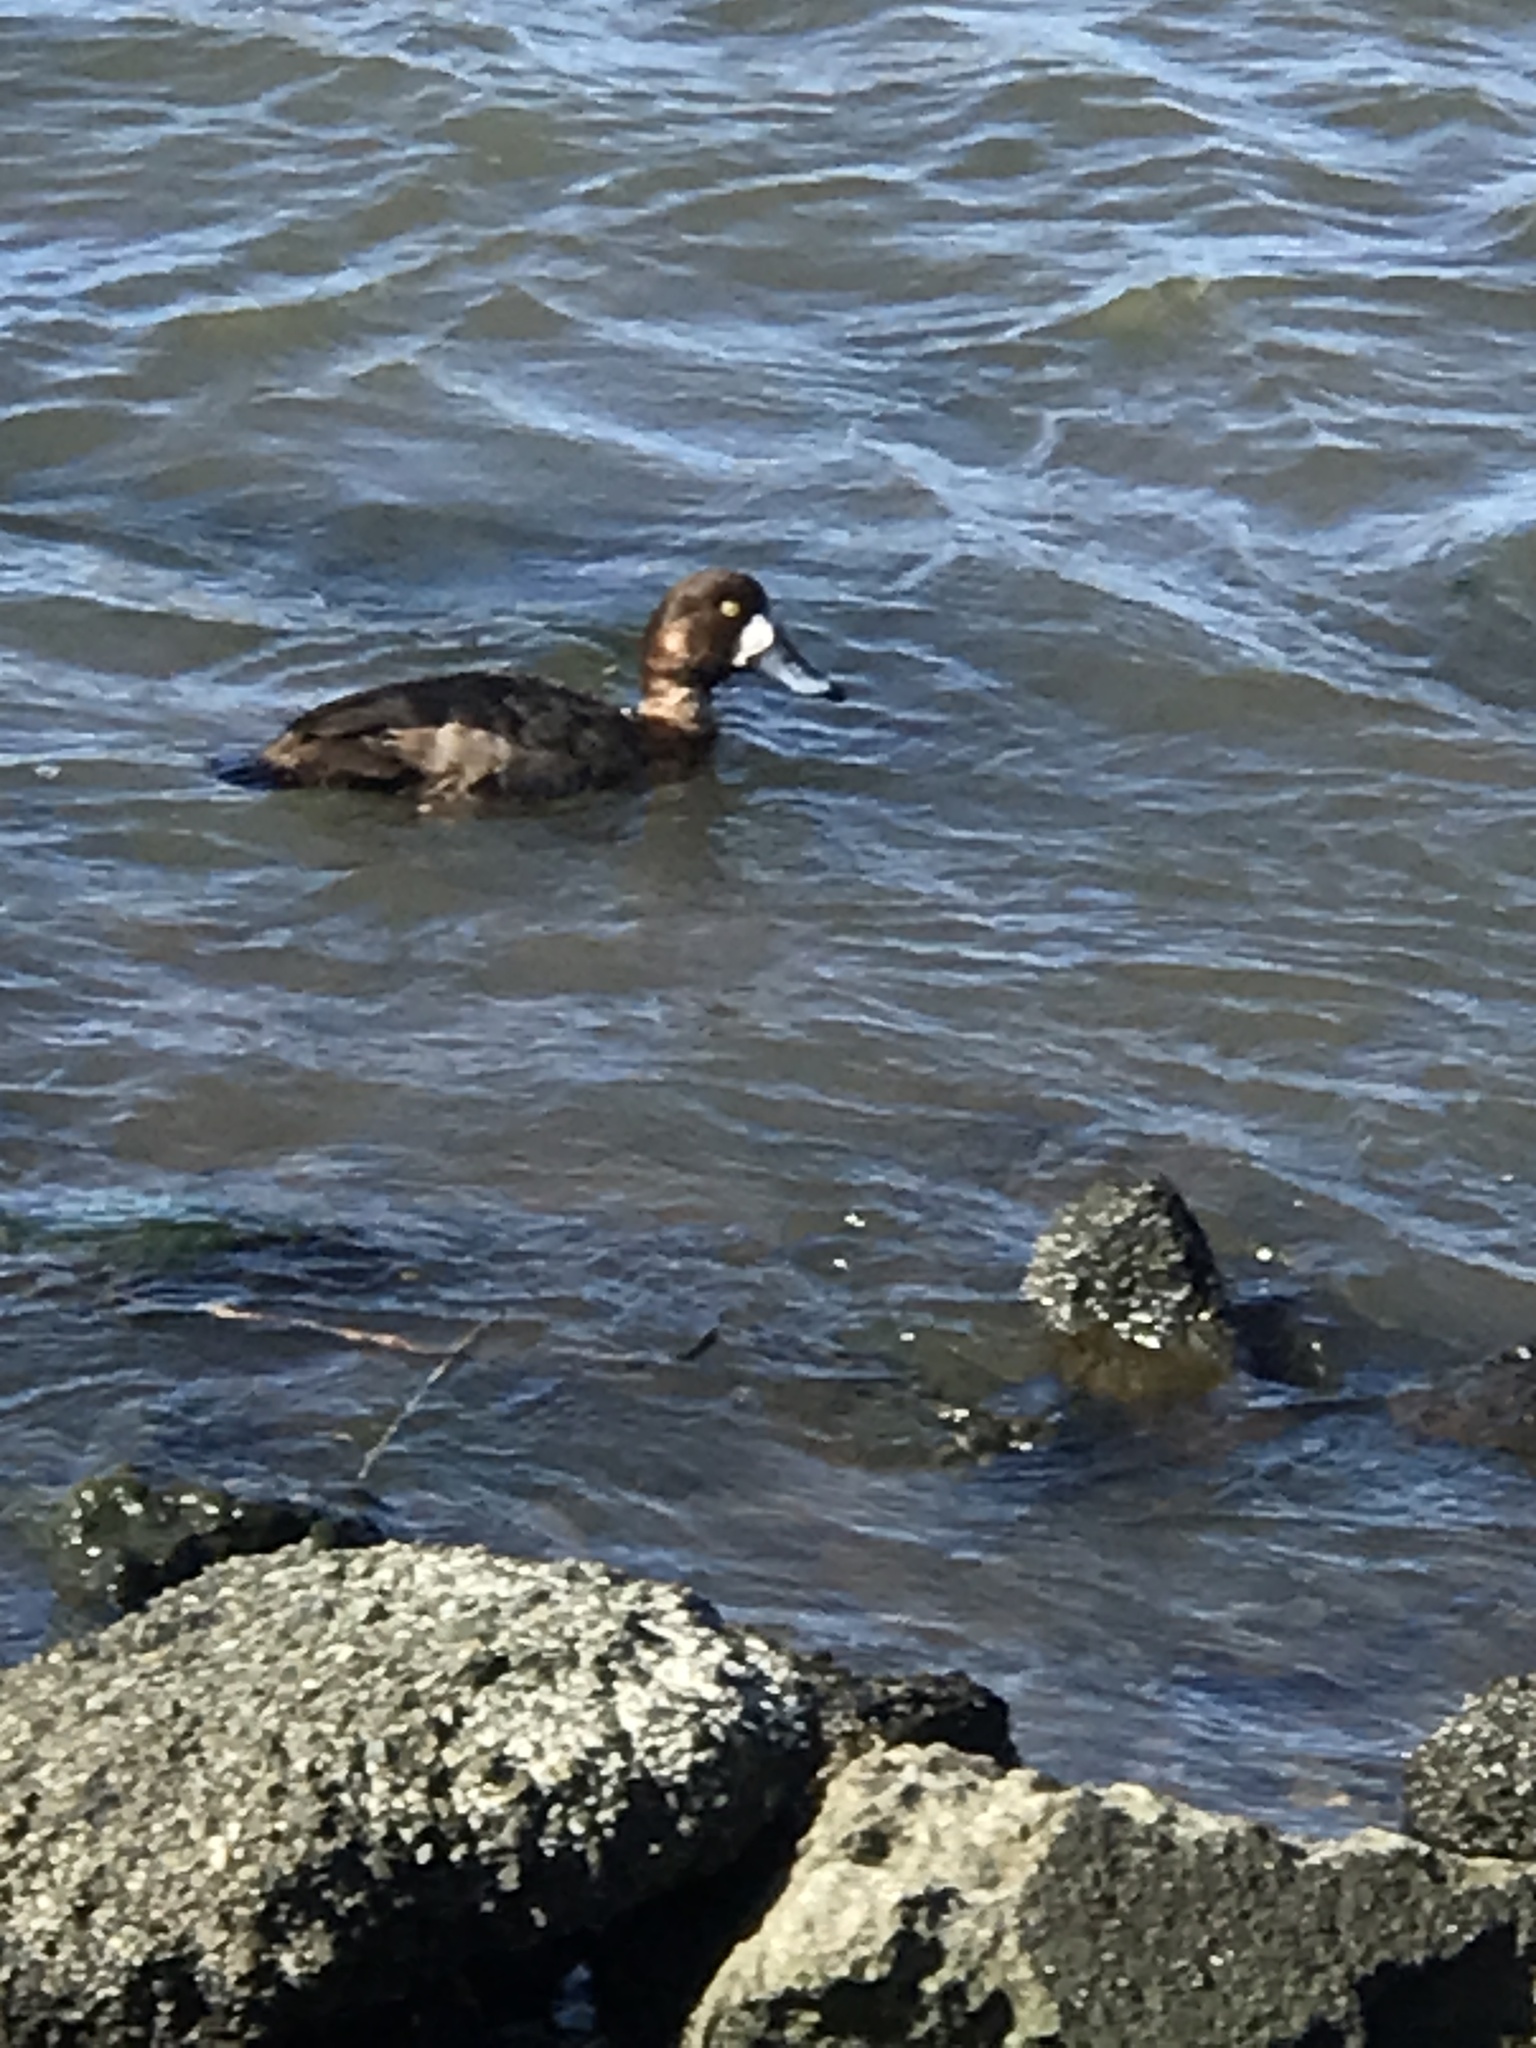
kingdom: Animalia
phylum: Chordata
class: Aves
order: Anseriformes
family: Anatidae
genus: Aythya
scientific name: Aythya marila
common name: Greater scaup
